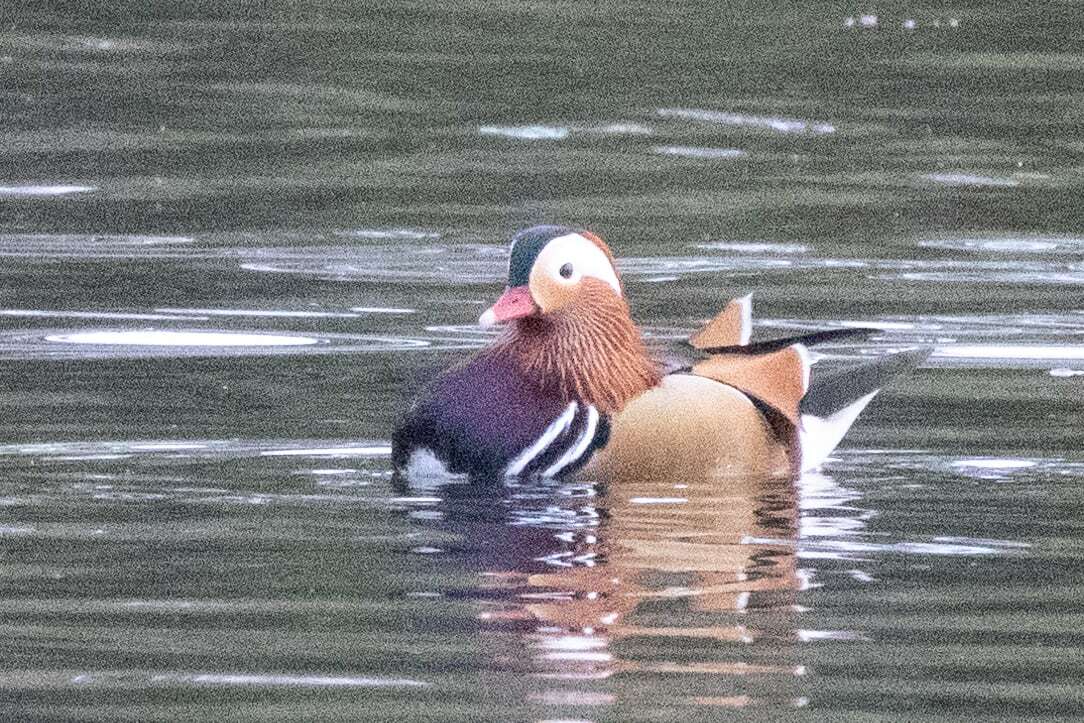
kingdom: Animalia
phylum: Chordata
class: Aves
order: Anseriformes
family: Anatidae
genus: Aix
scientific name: Aix galericulata
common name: Mandarin duck
